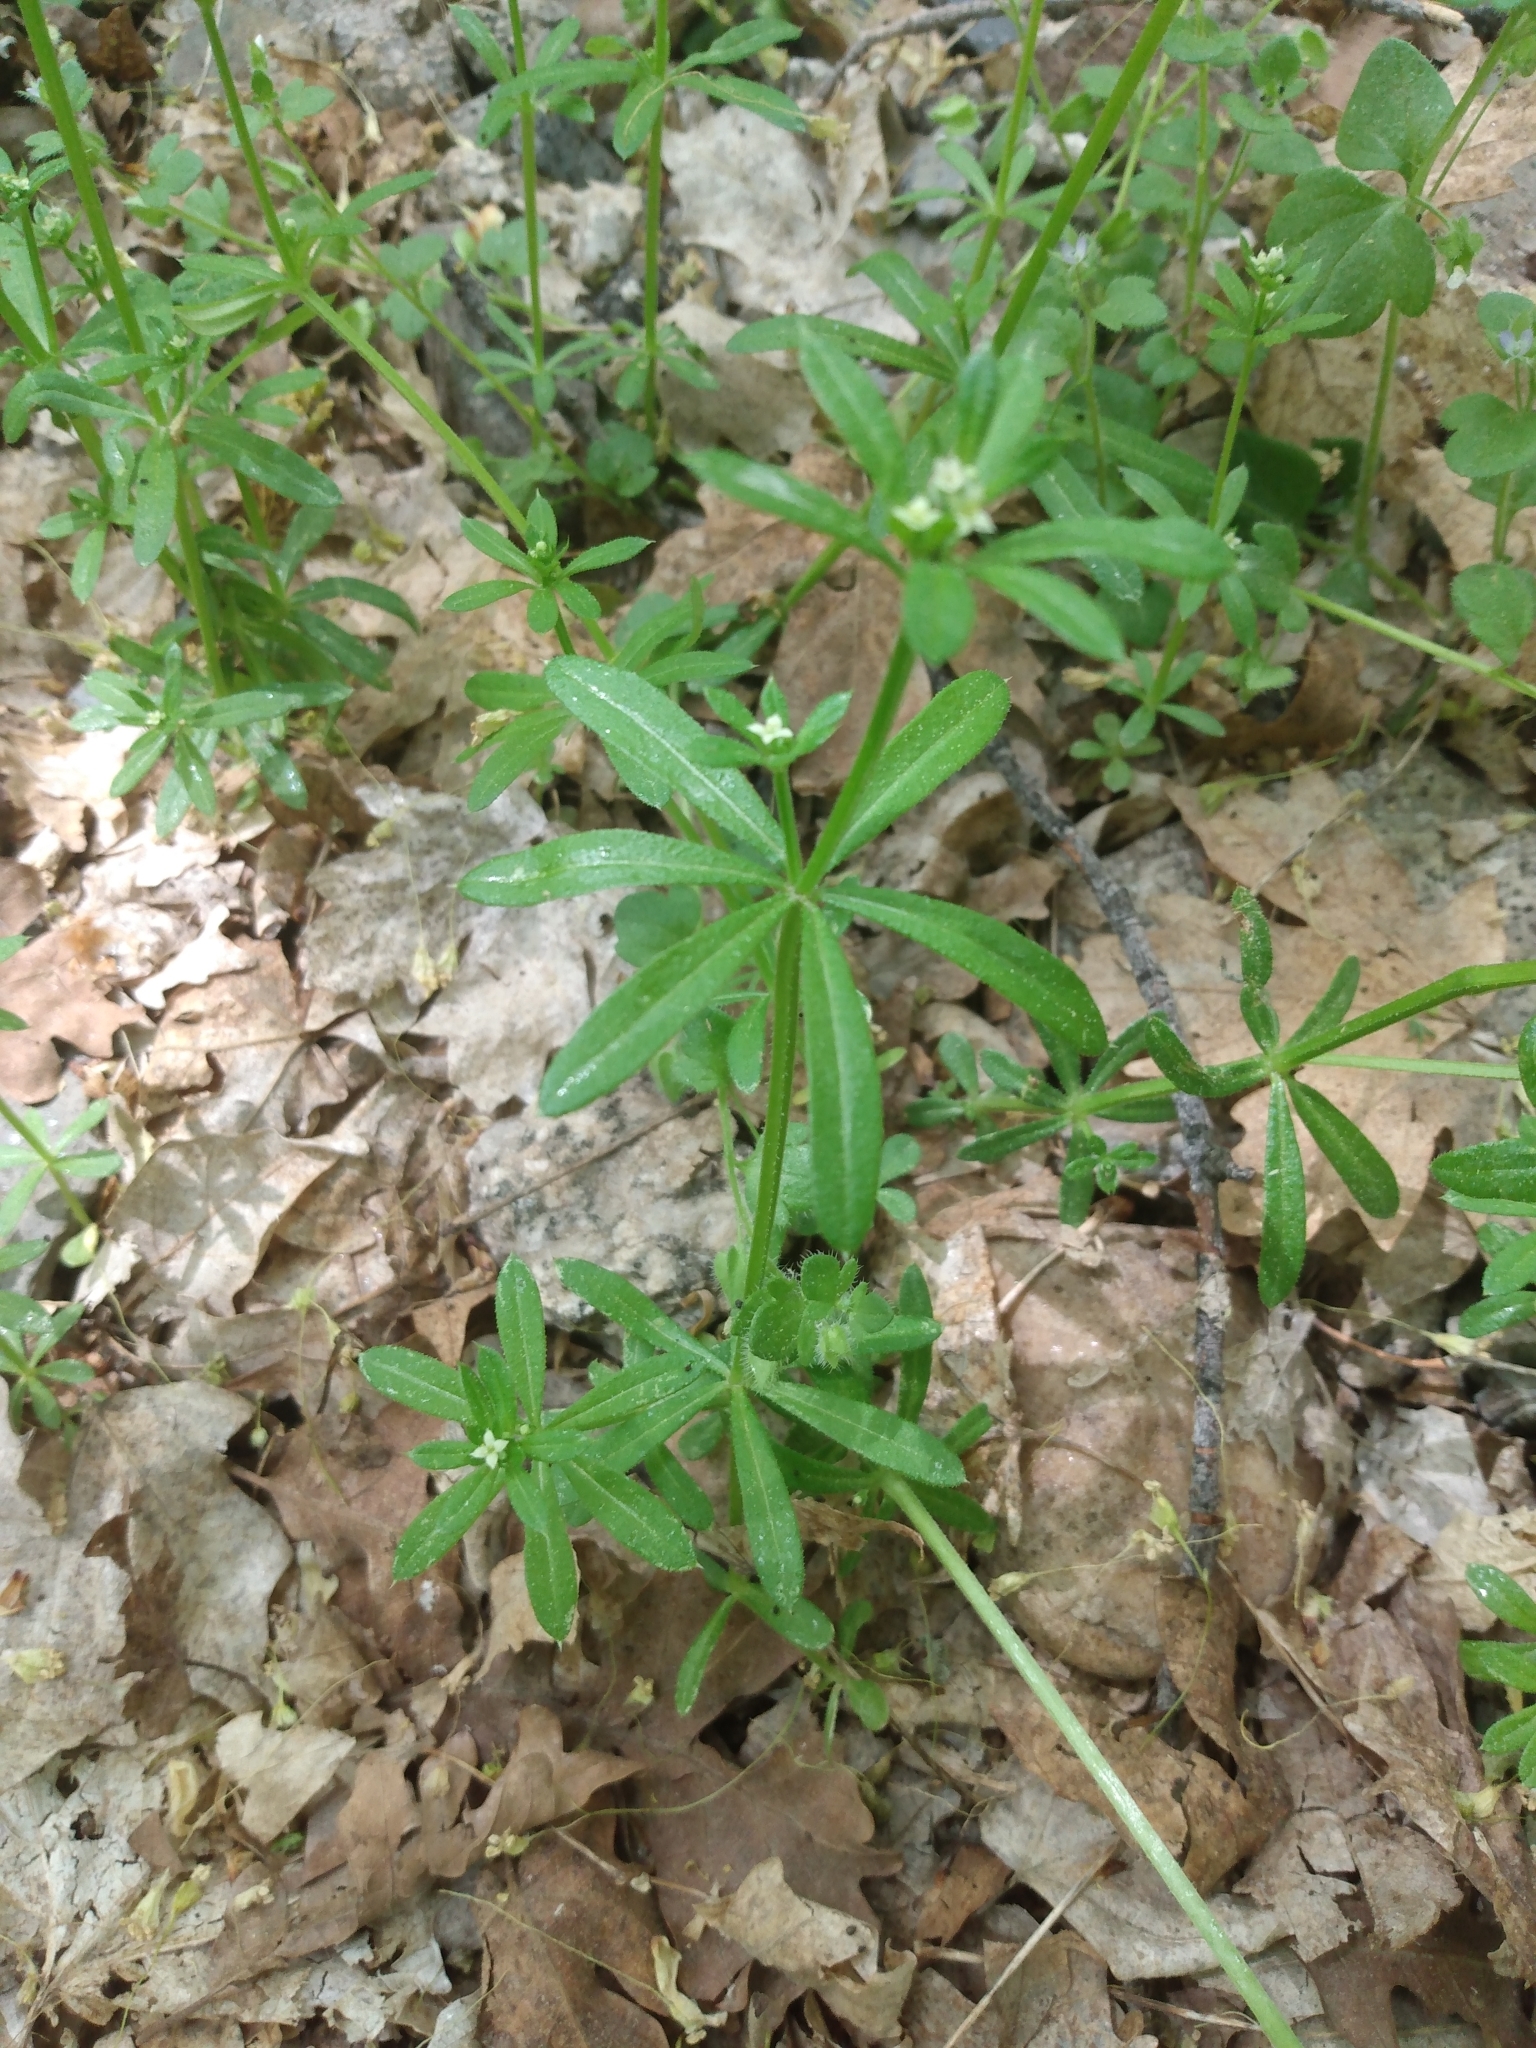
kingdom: Plantae
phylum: Tracheophyta
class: Magnoliopsida
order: Gentianales
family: Rubiaceae
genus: Galium
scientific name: Galium aparine
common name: Cleavers
